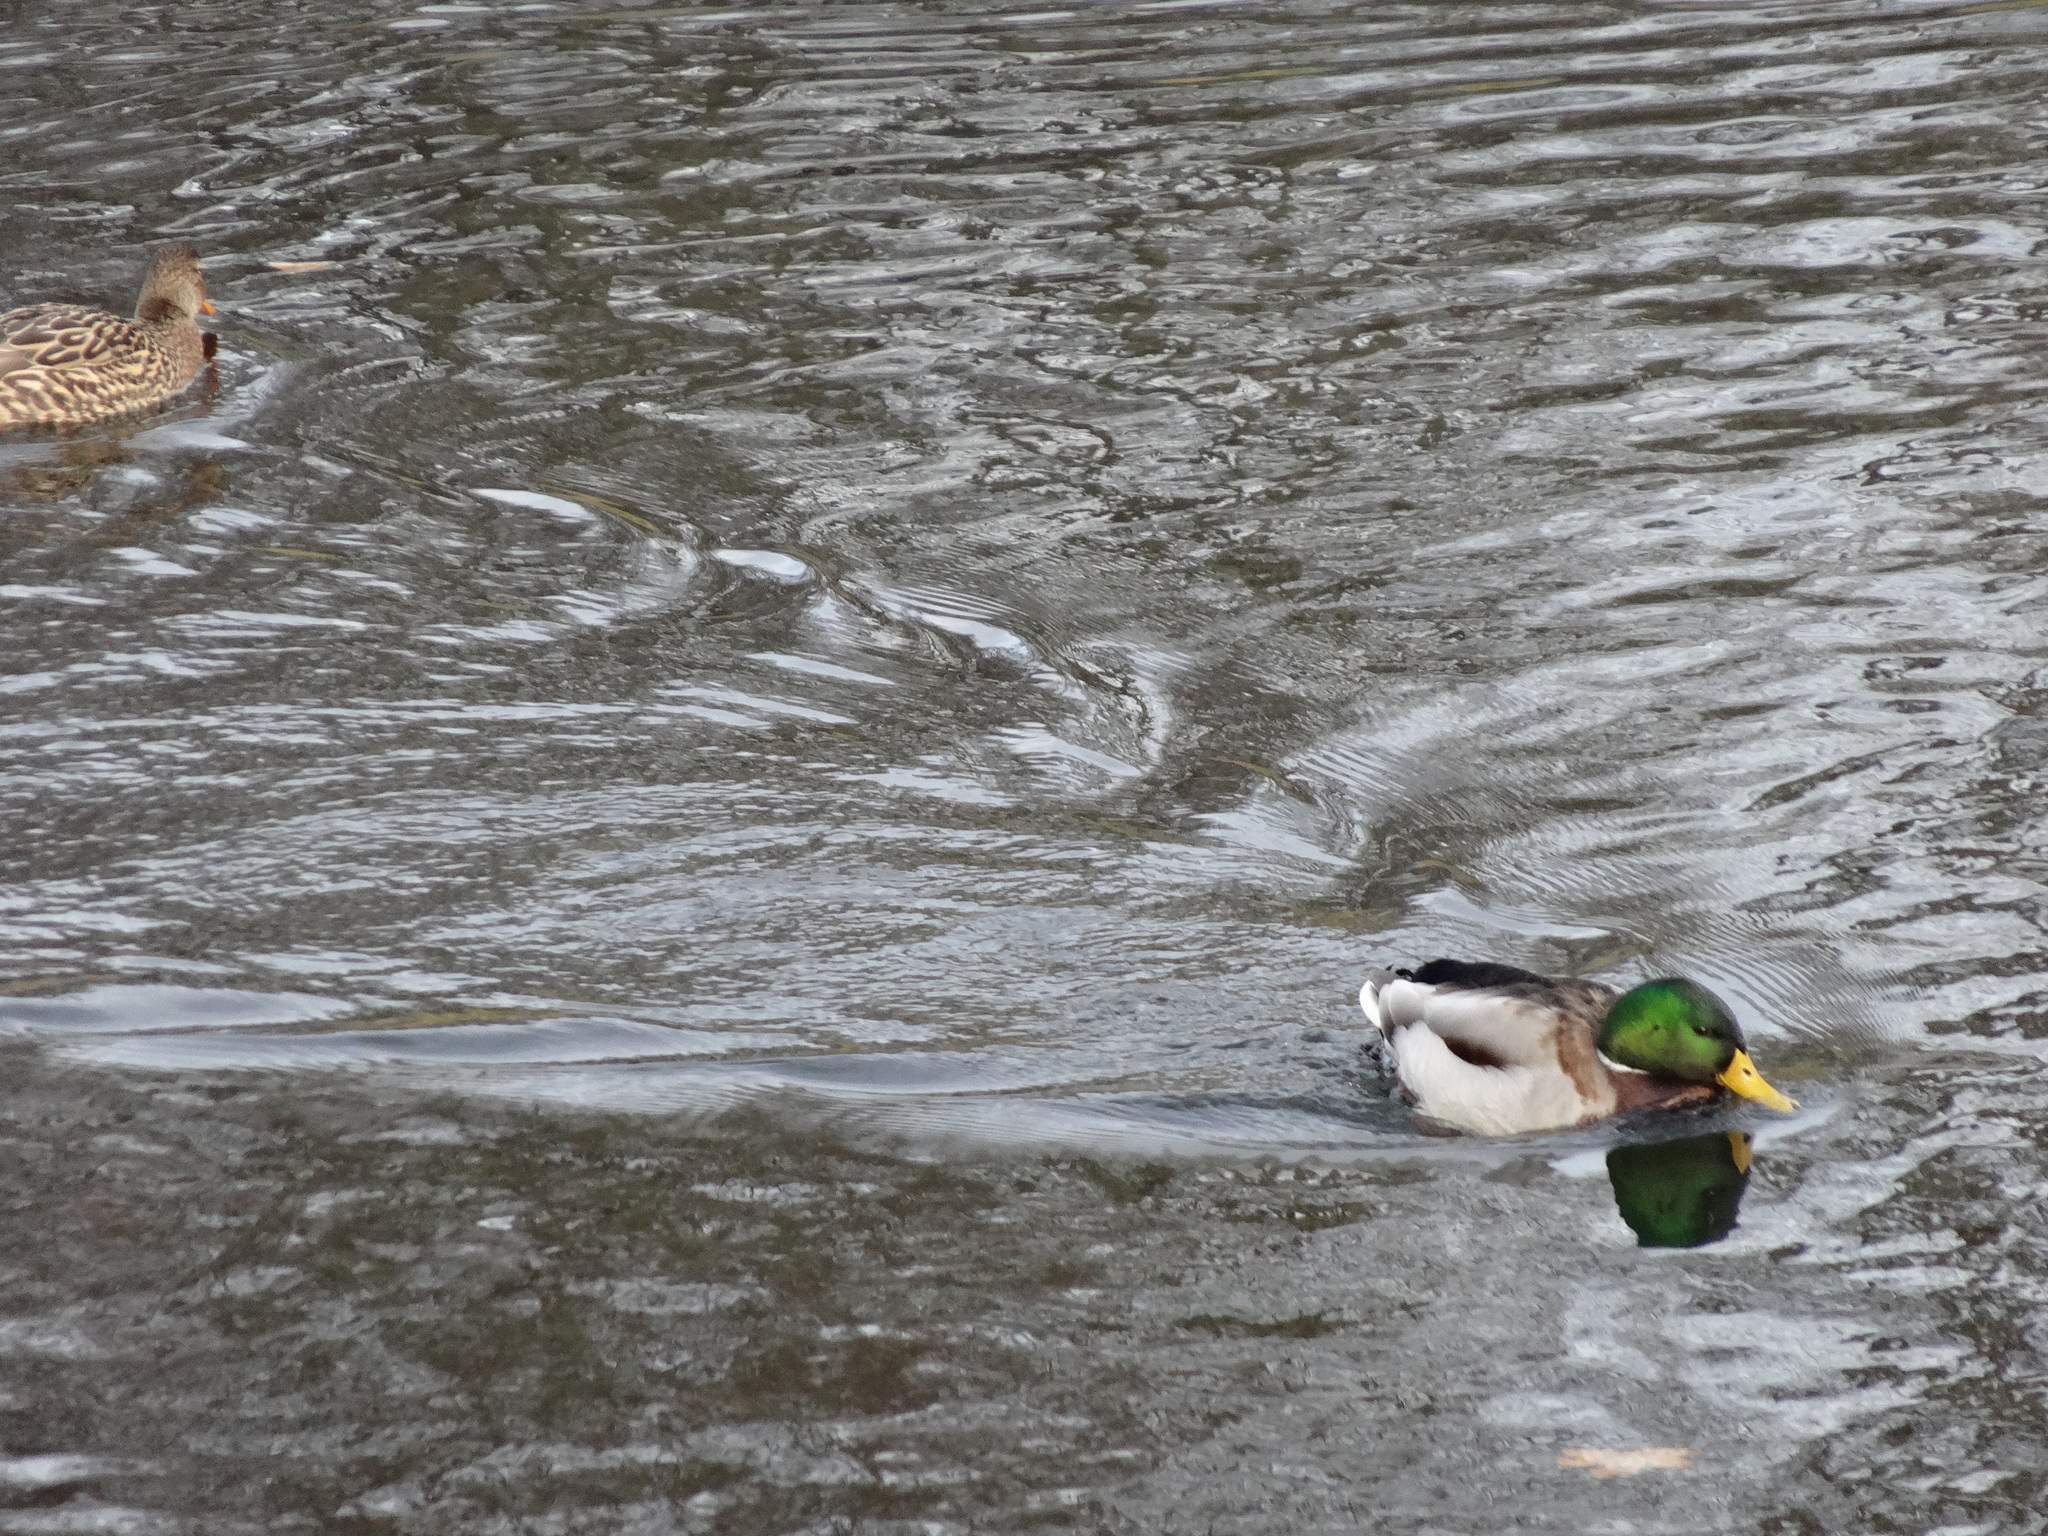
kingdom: Animalia
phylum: Chordata
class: Aves
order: Anseriformes
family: Anatidae
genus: Anas
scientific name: Anas platyrhynchos
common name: Mallard
